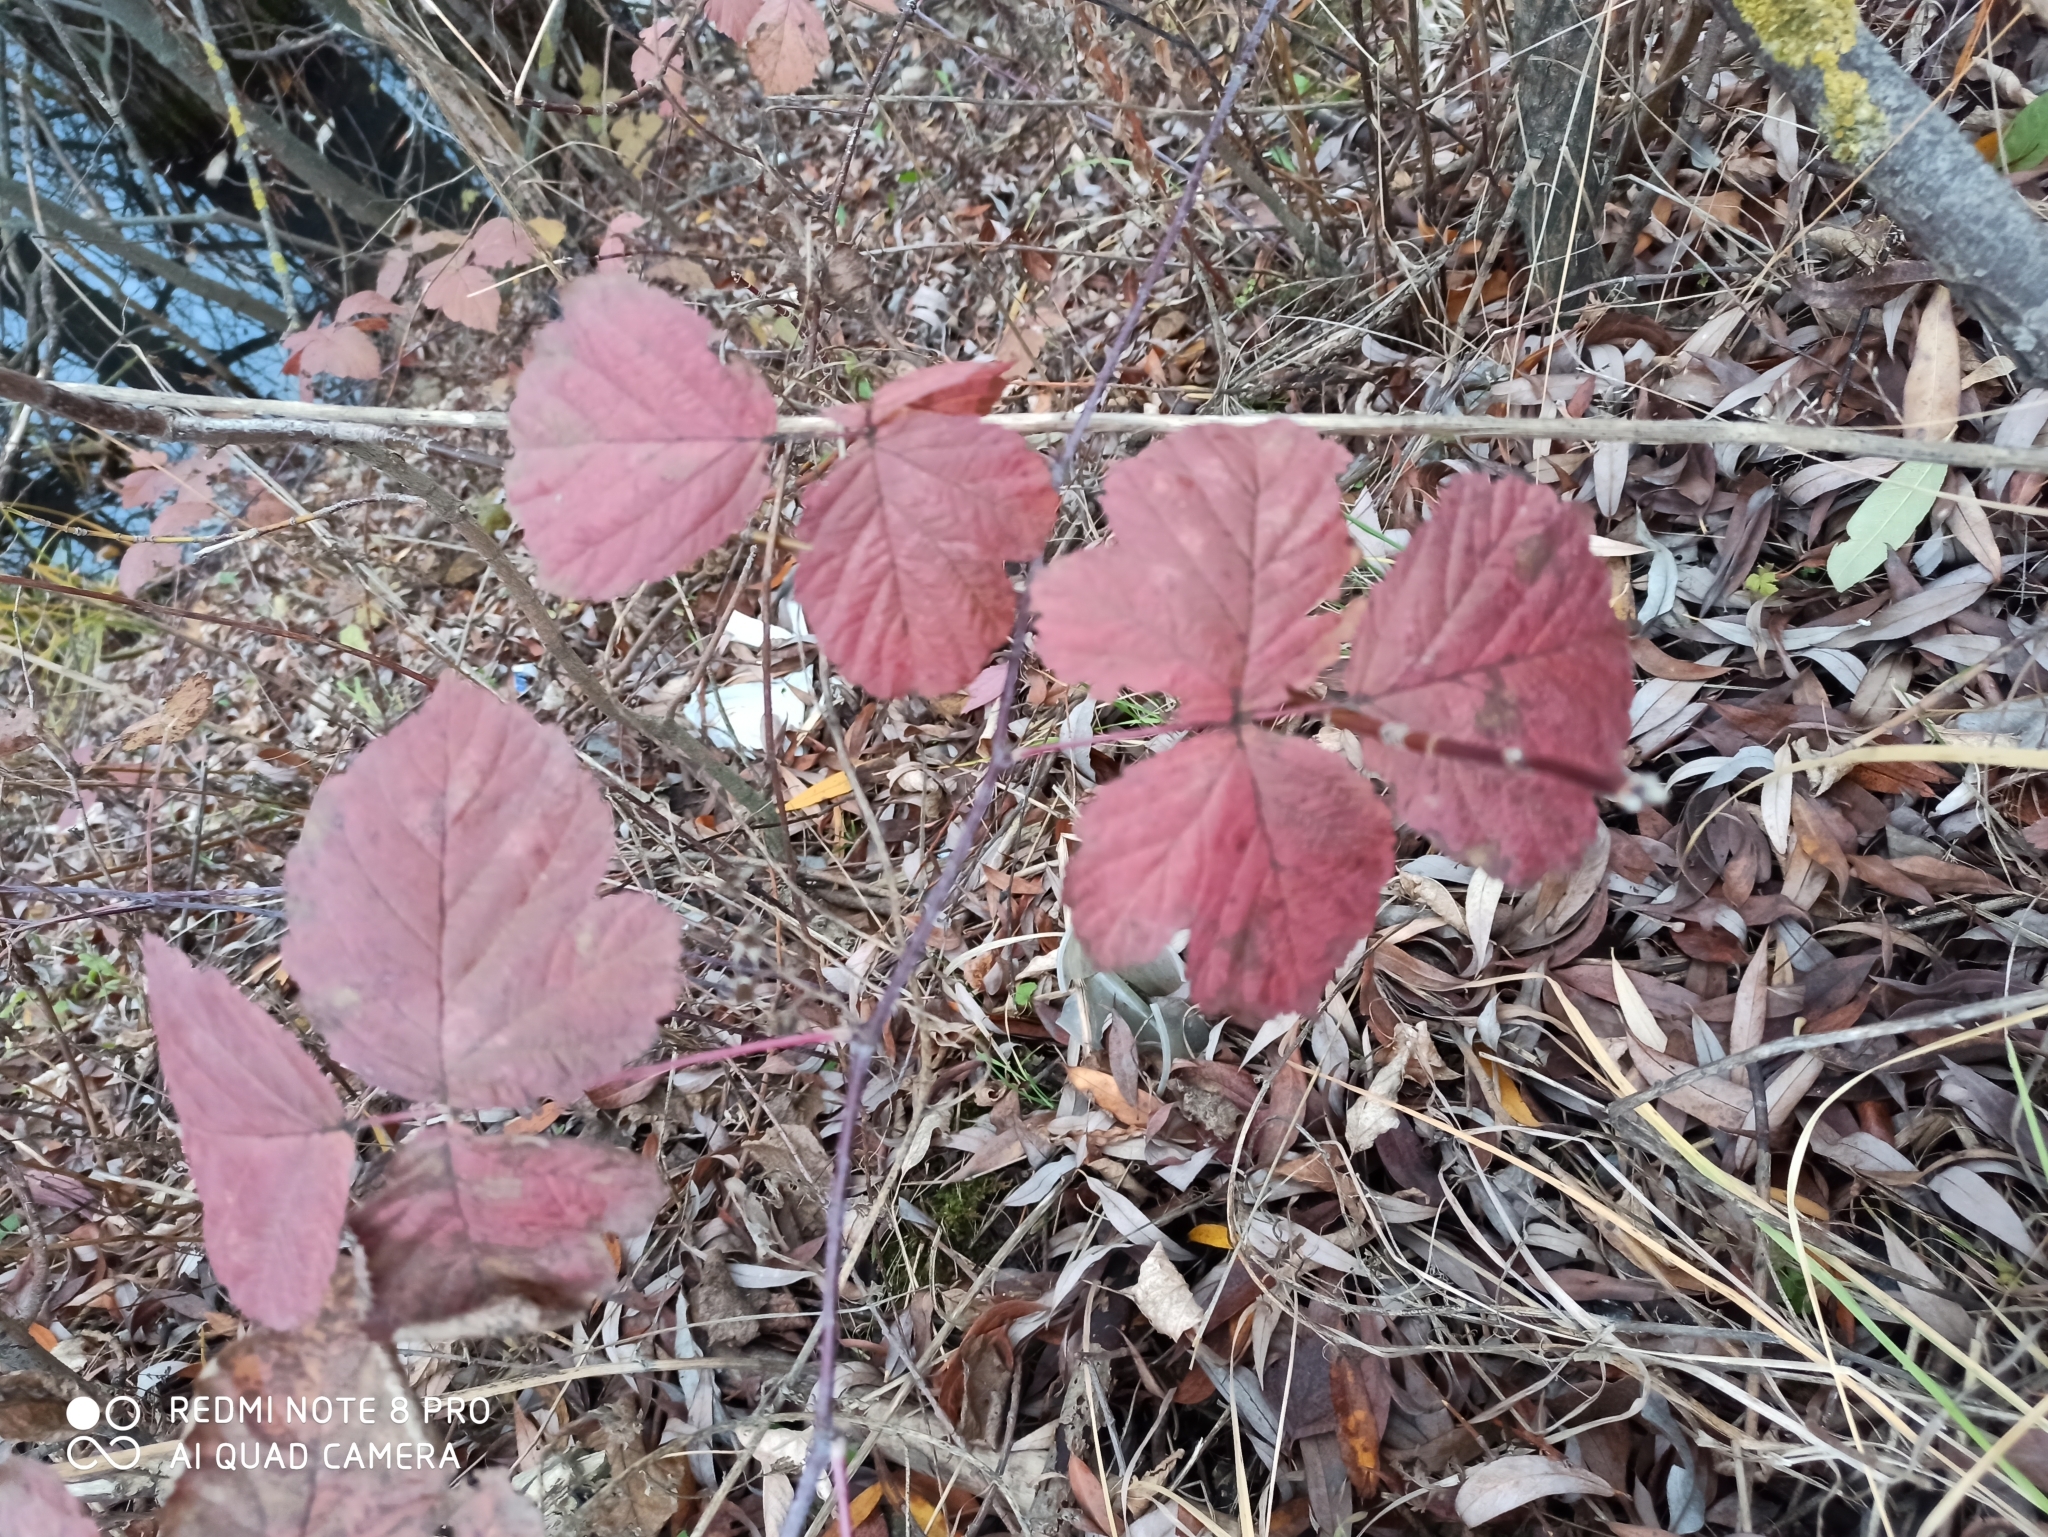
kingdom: Plantae
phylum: Tracheophyta
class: Magnoliopsida
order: Rosales
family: Rosaceae
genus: Rubus
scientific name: Rubus caesius
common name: Dewberry
